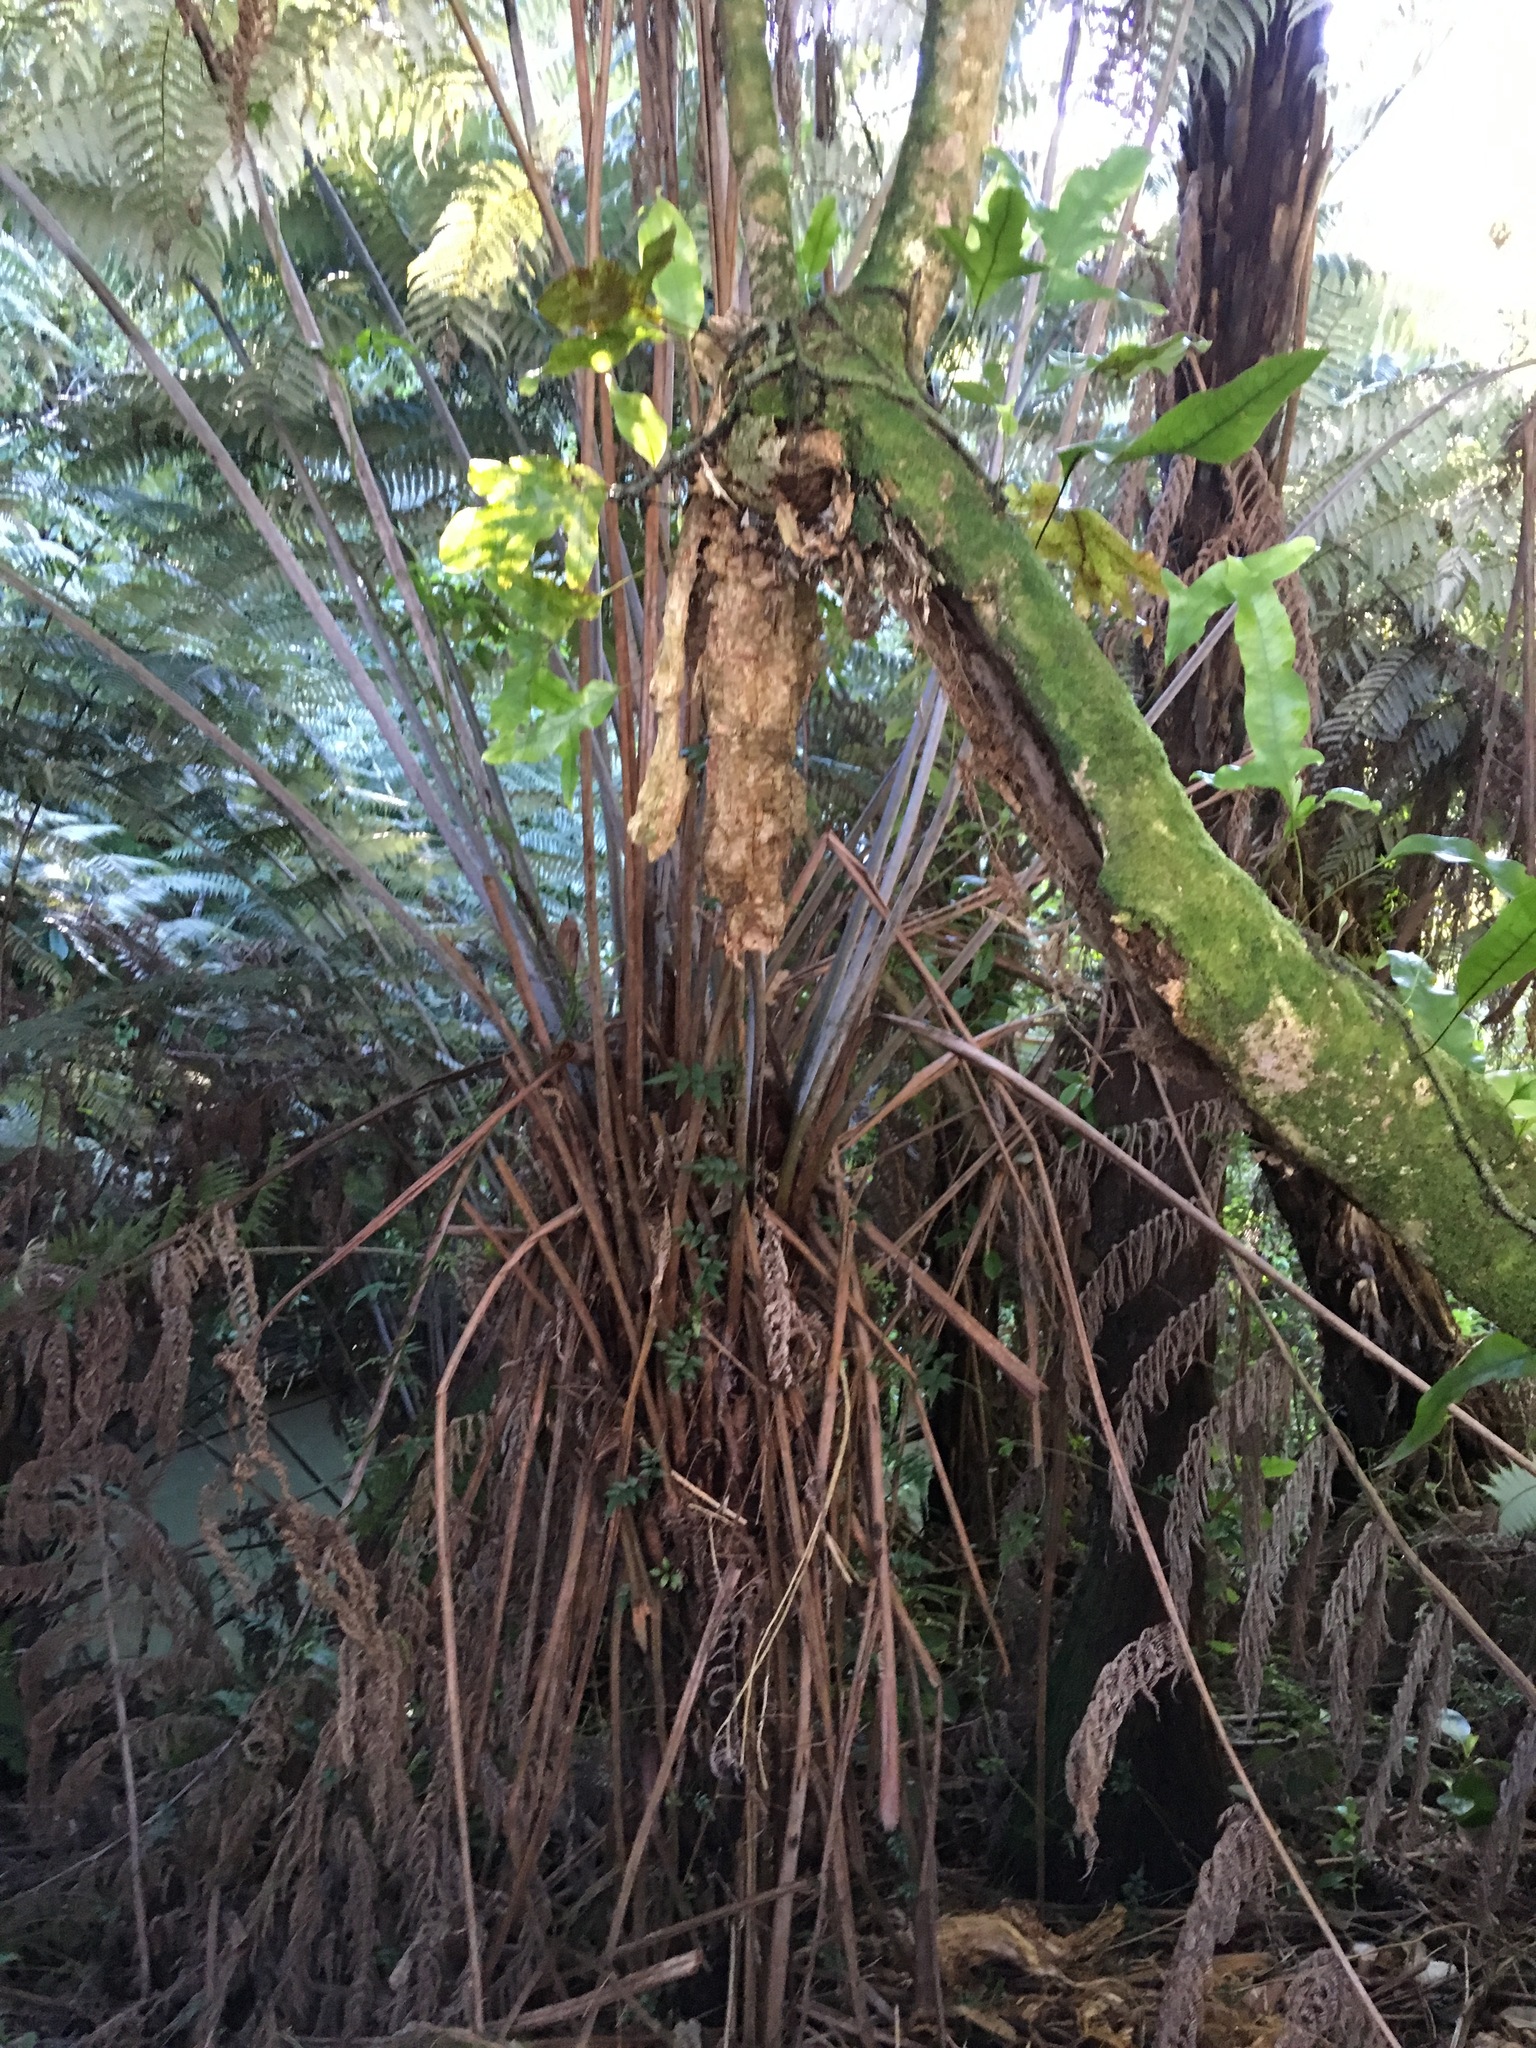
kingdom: Plantae
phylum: Tracheophyta
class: Magnoliopsida
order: Lamiales
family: Oleaceae
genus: Jasminum
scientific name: Jasminum polyanthum
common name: Pink jasmine
